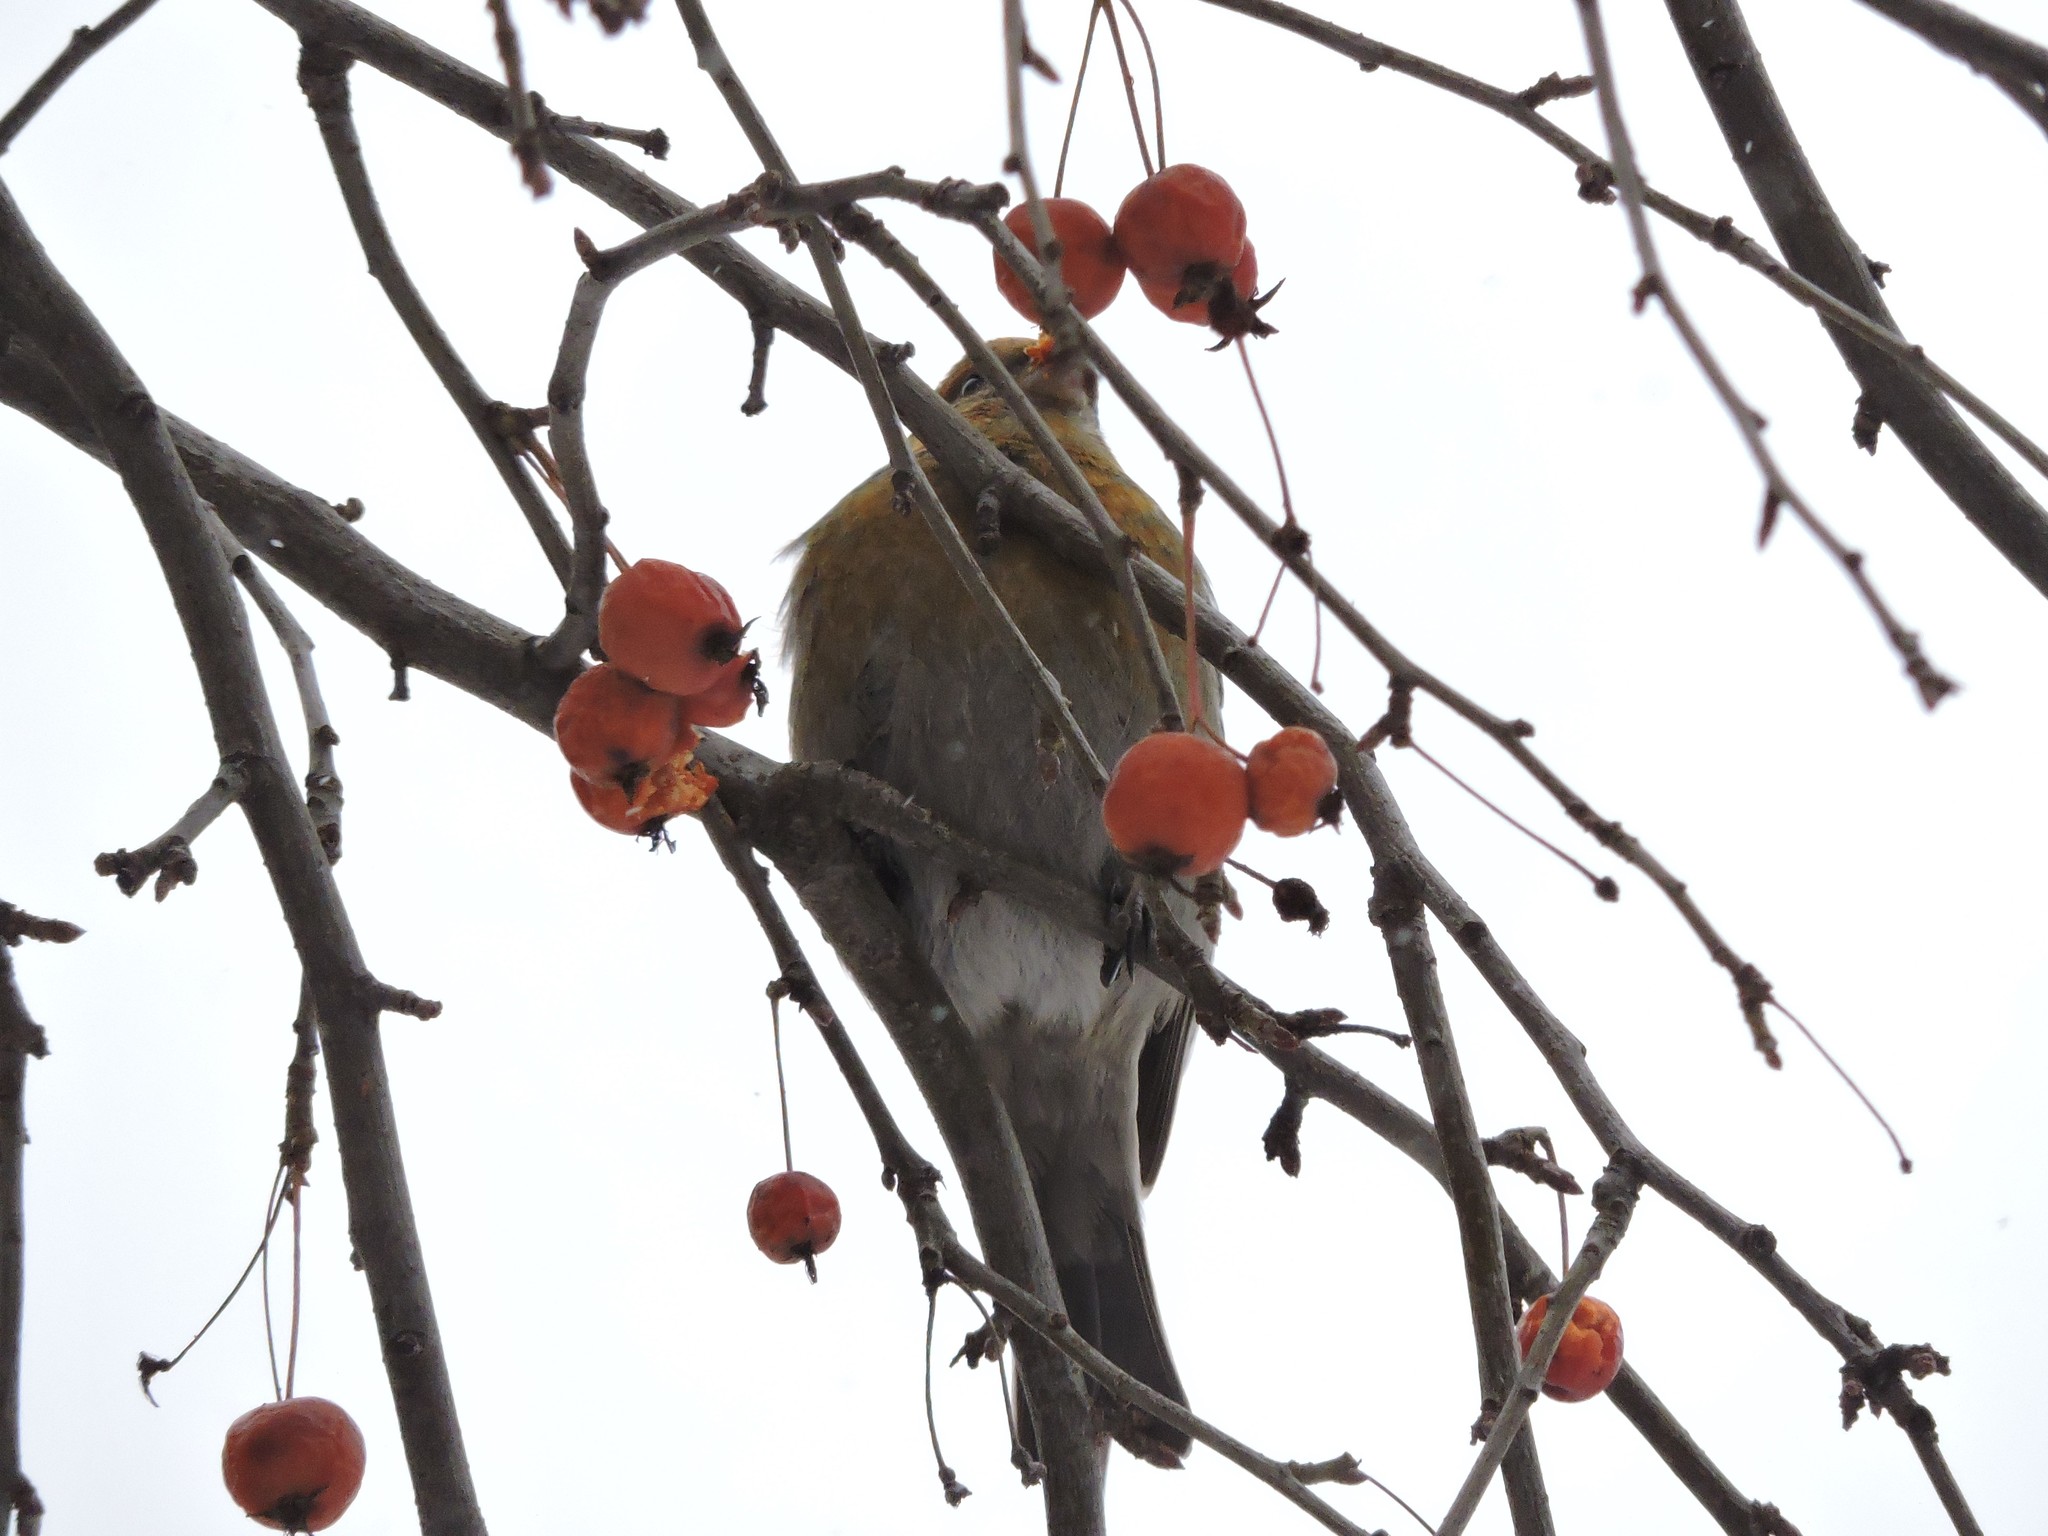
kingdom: Animalia
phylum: Chordata
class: Aves
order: Passeriformes
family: Fringillidae
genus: Pinicola
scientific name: Pinicola enucleator
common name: Pine grosbeak
